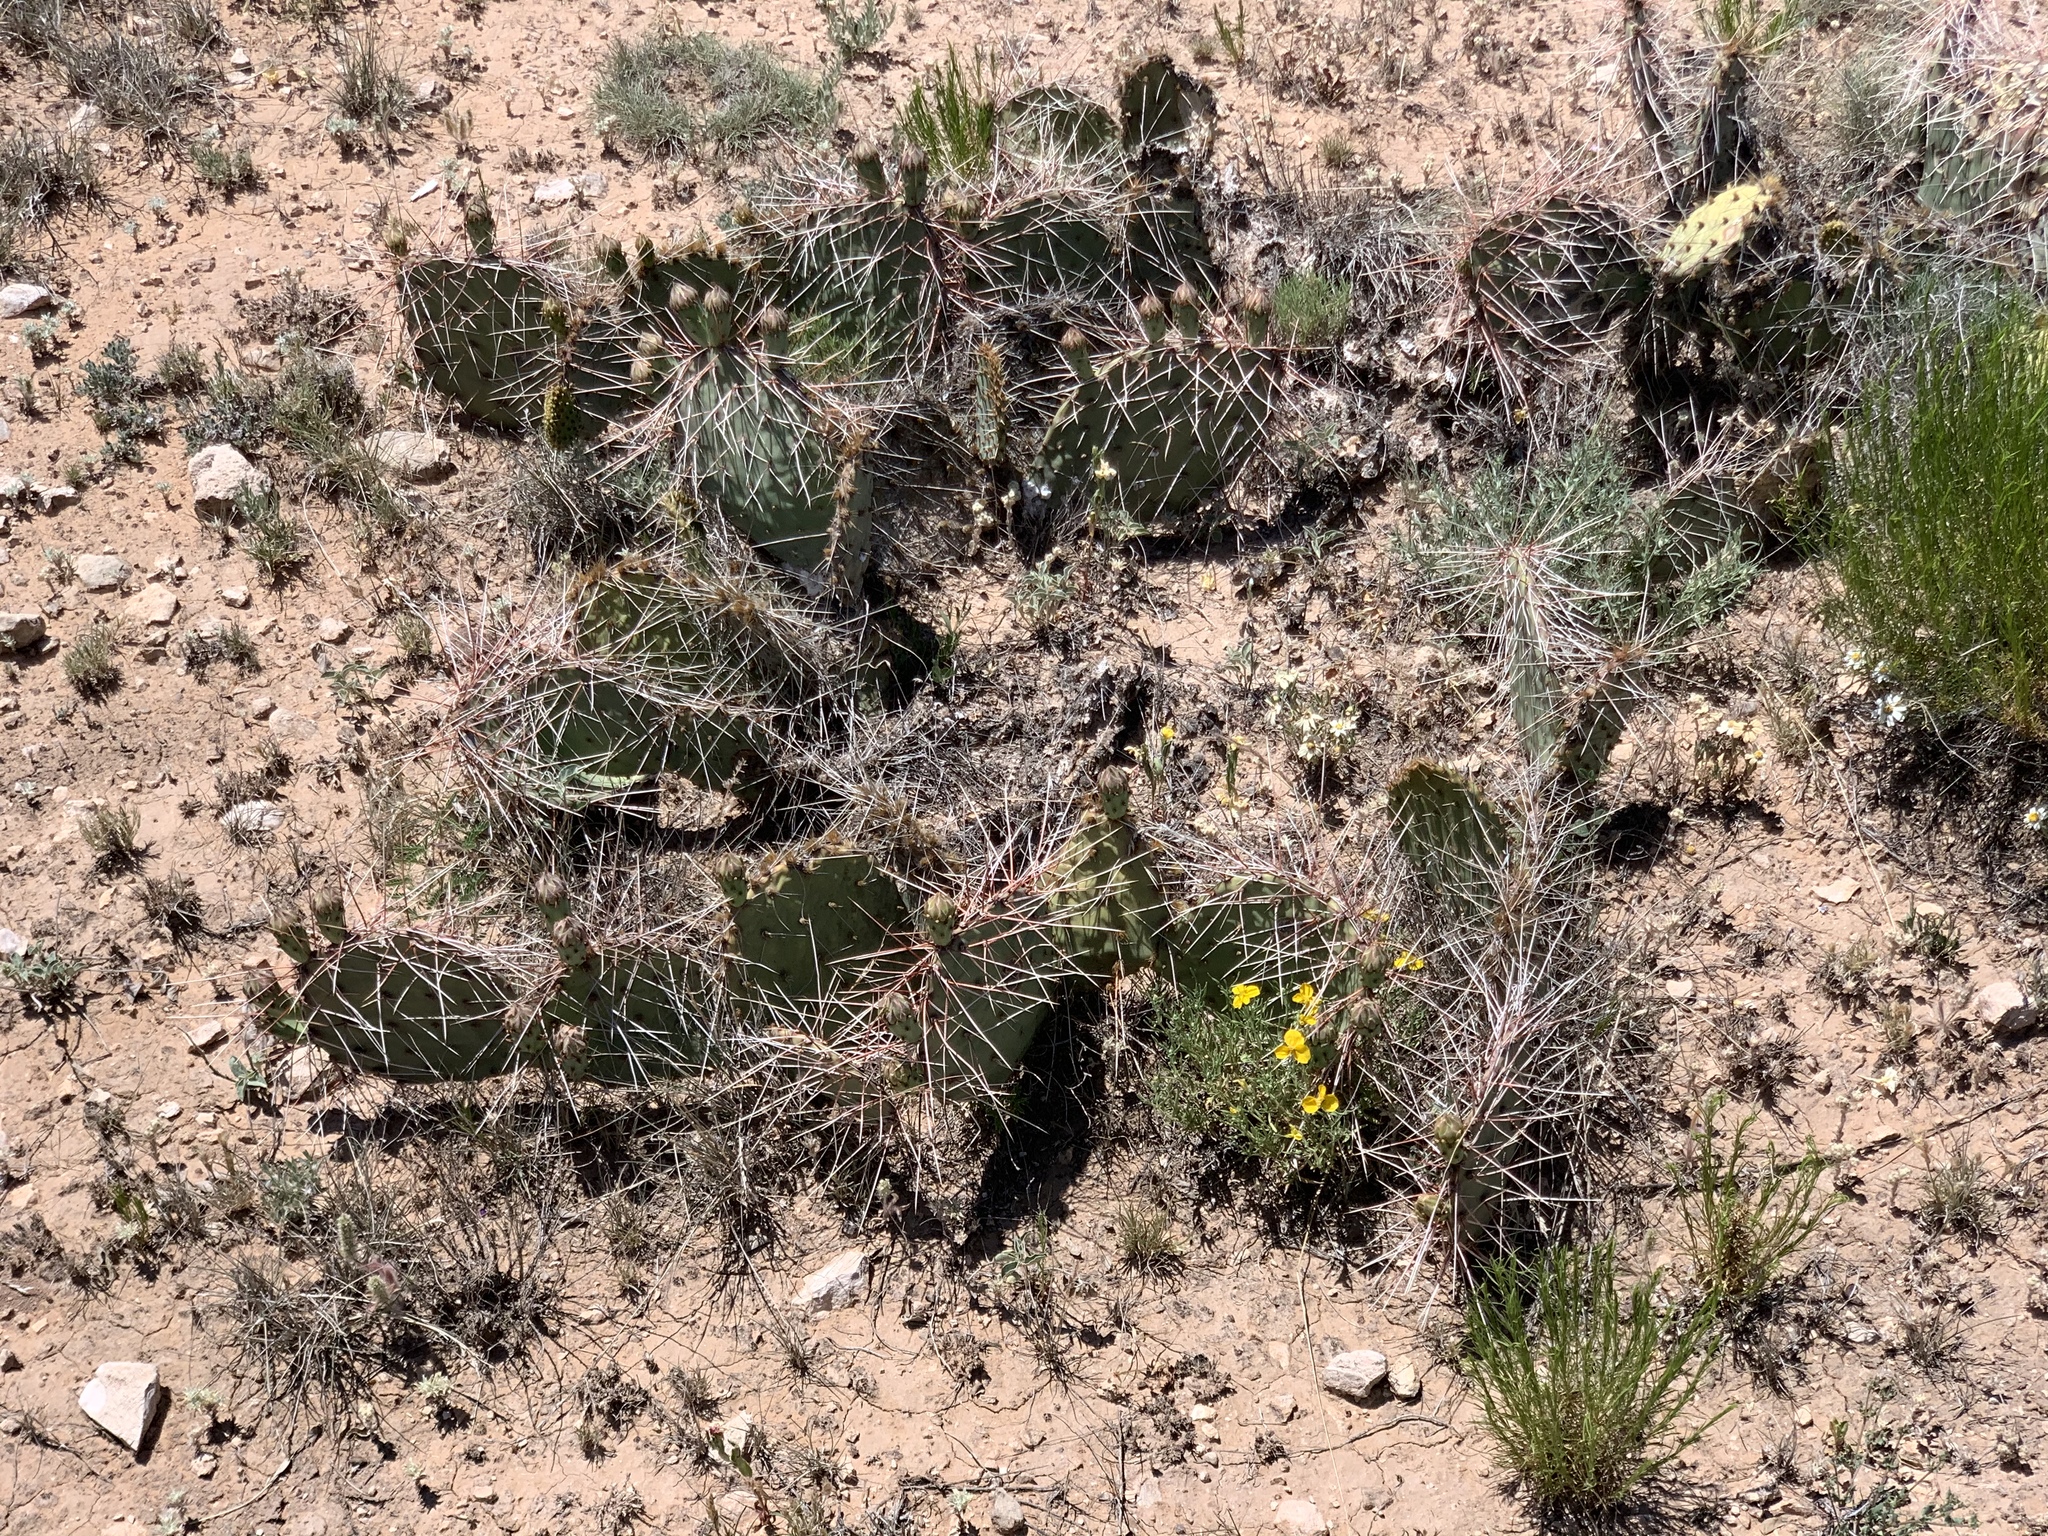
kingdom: Plantae
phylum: Tracheophyta
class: Magnoliopsida
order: Caryophyllales
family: Cactaceae
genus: Opuntia
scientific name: Opuntia macrorhiza
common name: Grassland pricklypear
